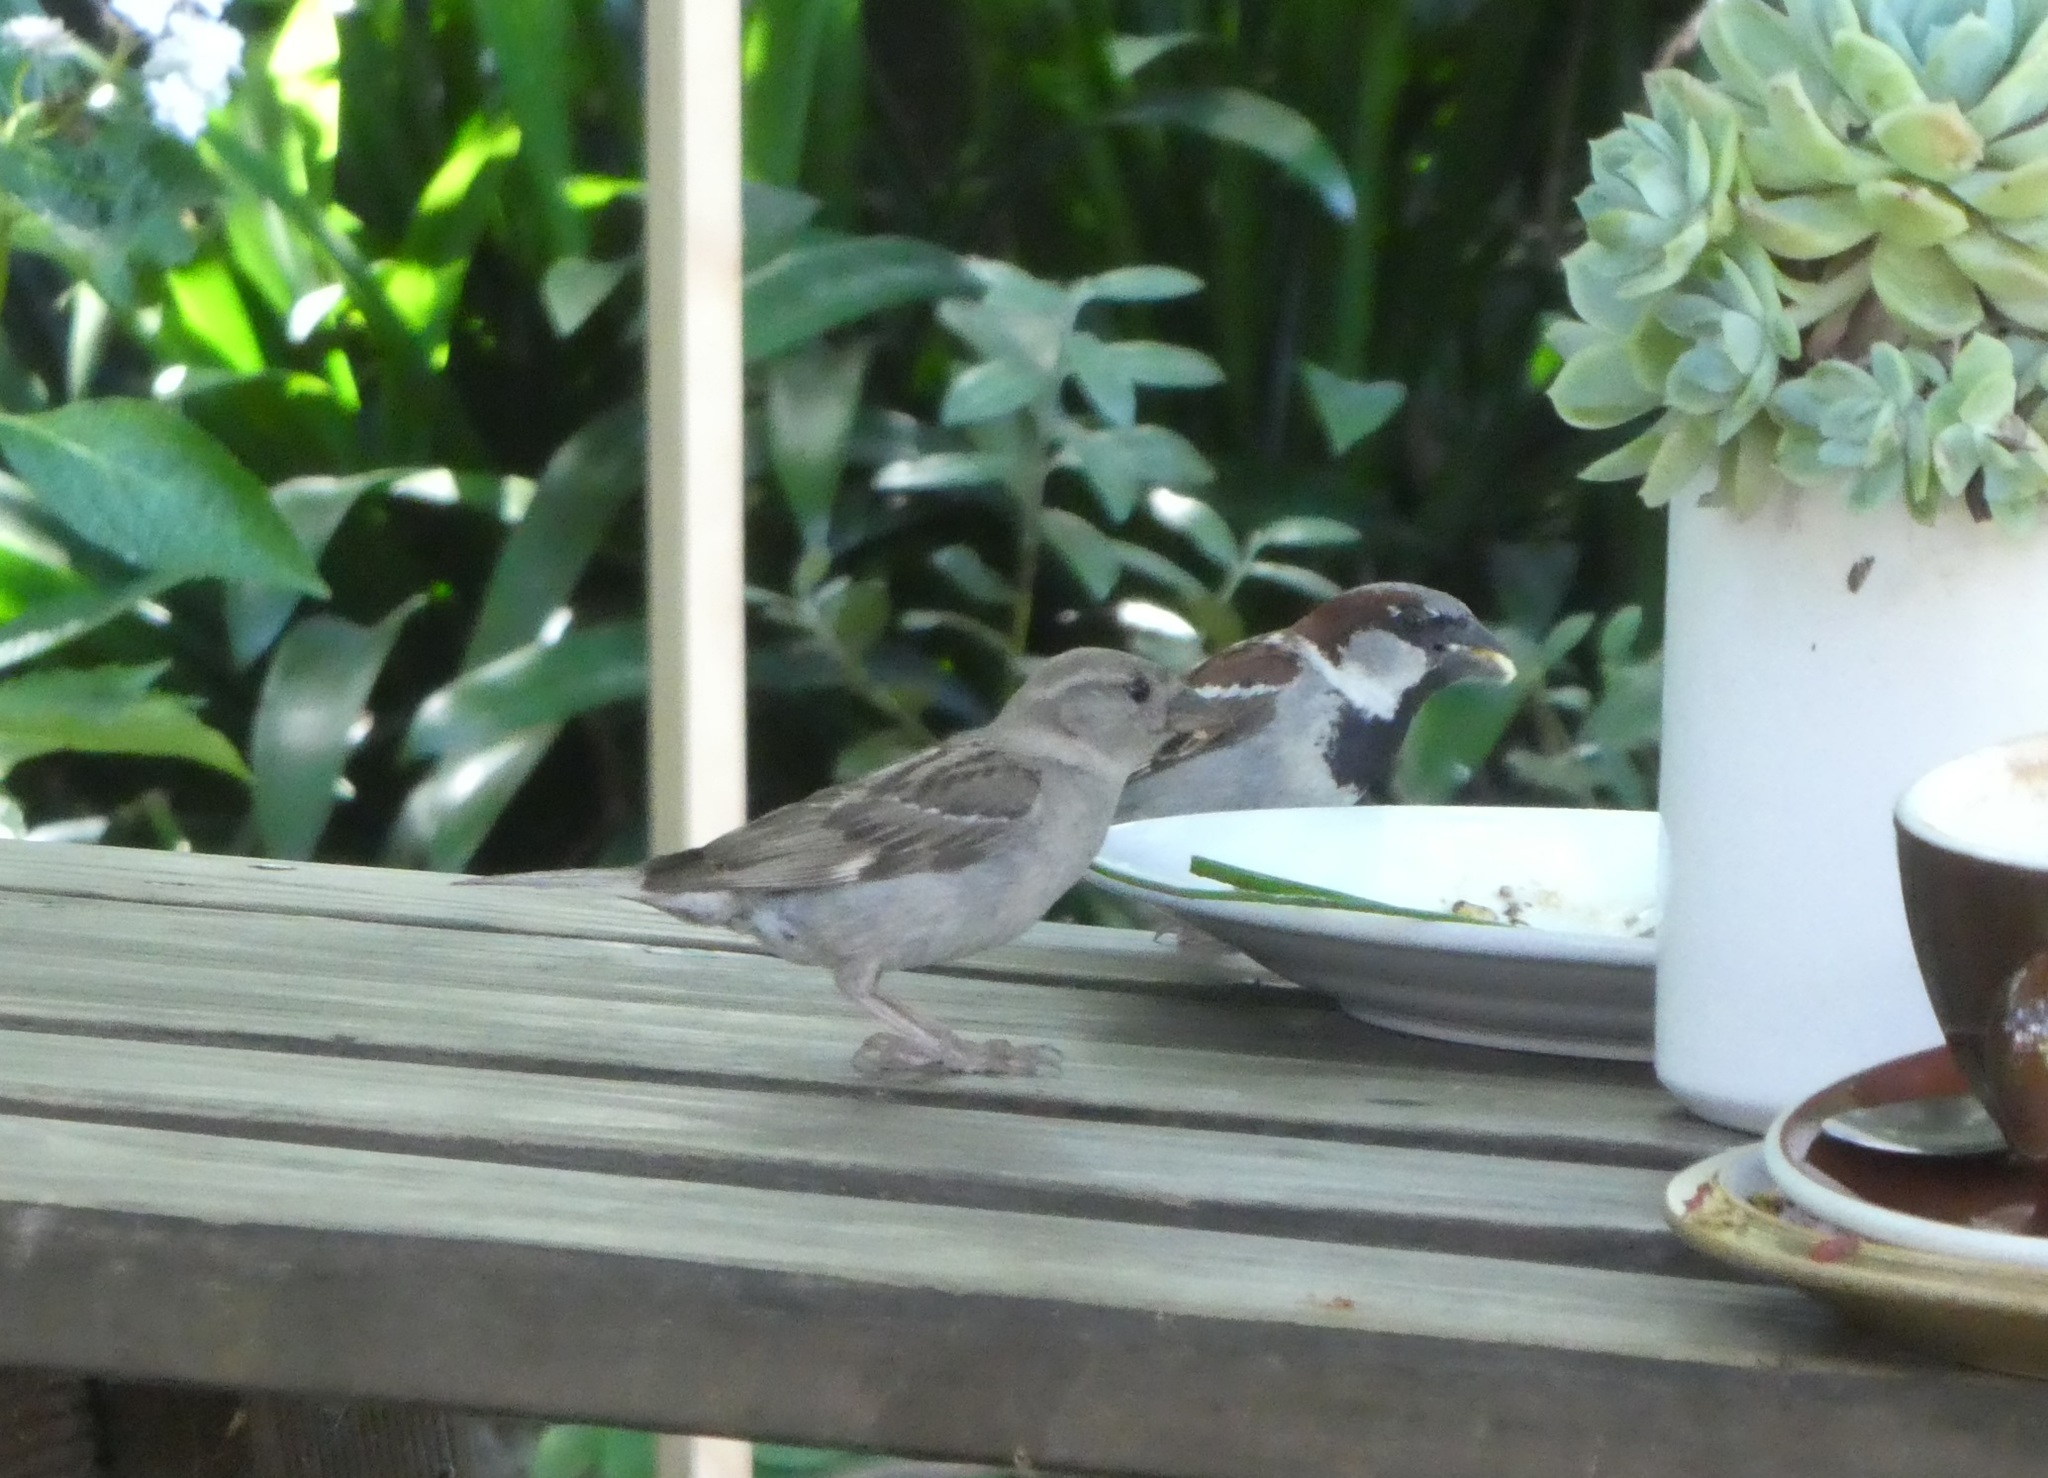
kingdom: Animalia
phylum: Chordata
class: Aves
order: Passeriformes
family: Passeridae
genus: Passer
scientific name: Passer domesticus
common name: House sparrow
